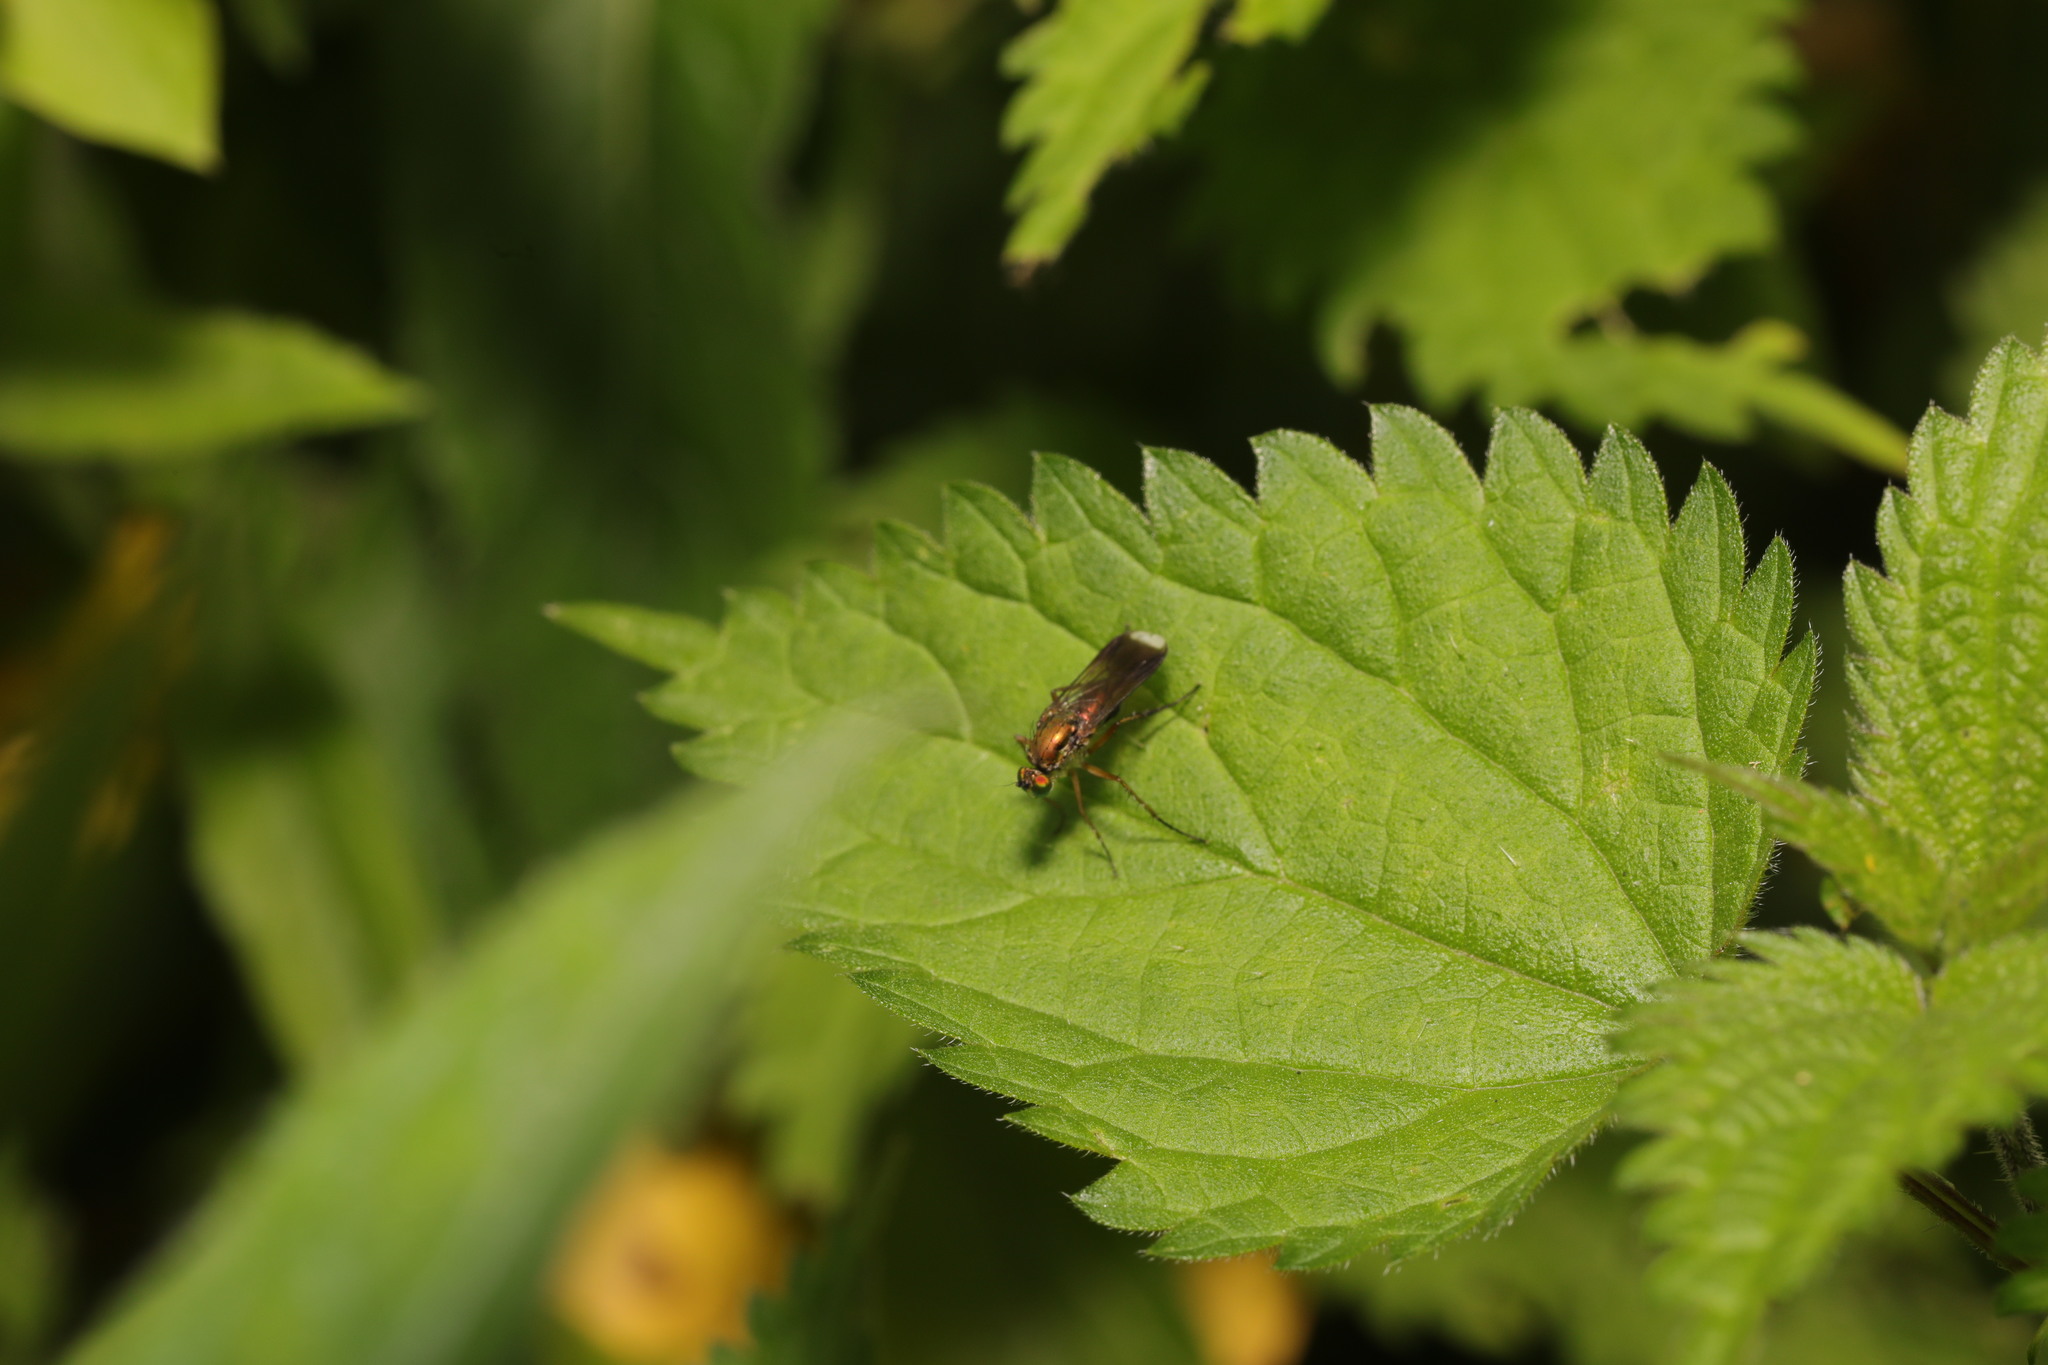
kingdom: Animalia
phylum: Arthropoda
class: Insecta
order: Diptera
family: Dolichopodidae
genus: Poecilobothrus
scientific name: Poecilobothrus nobilitatus
